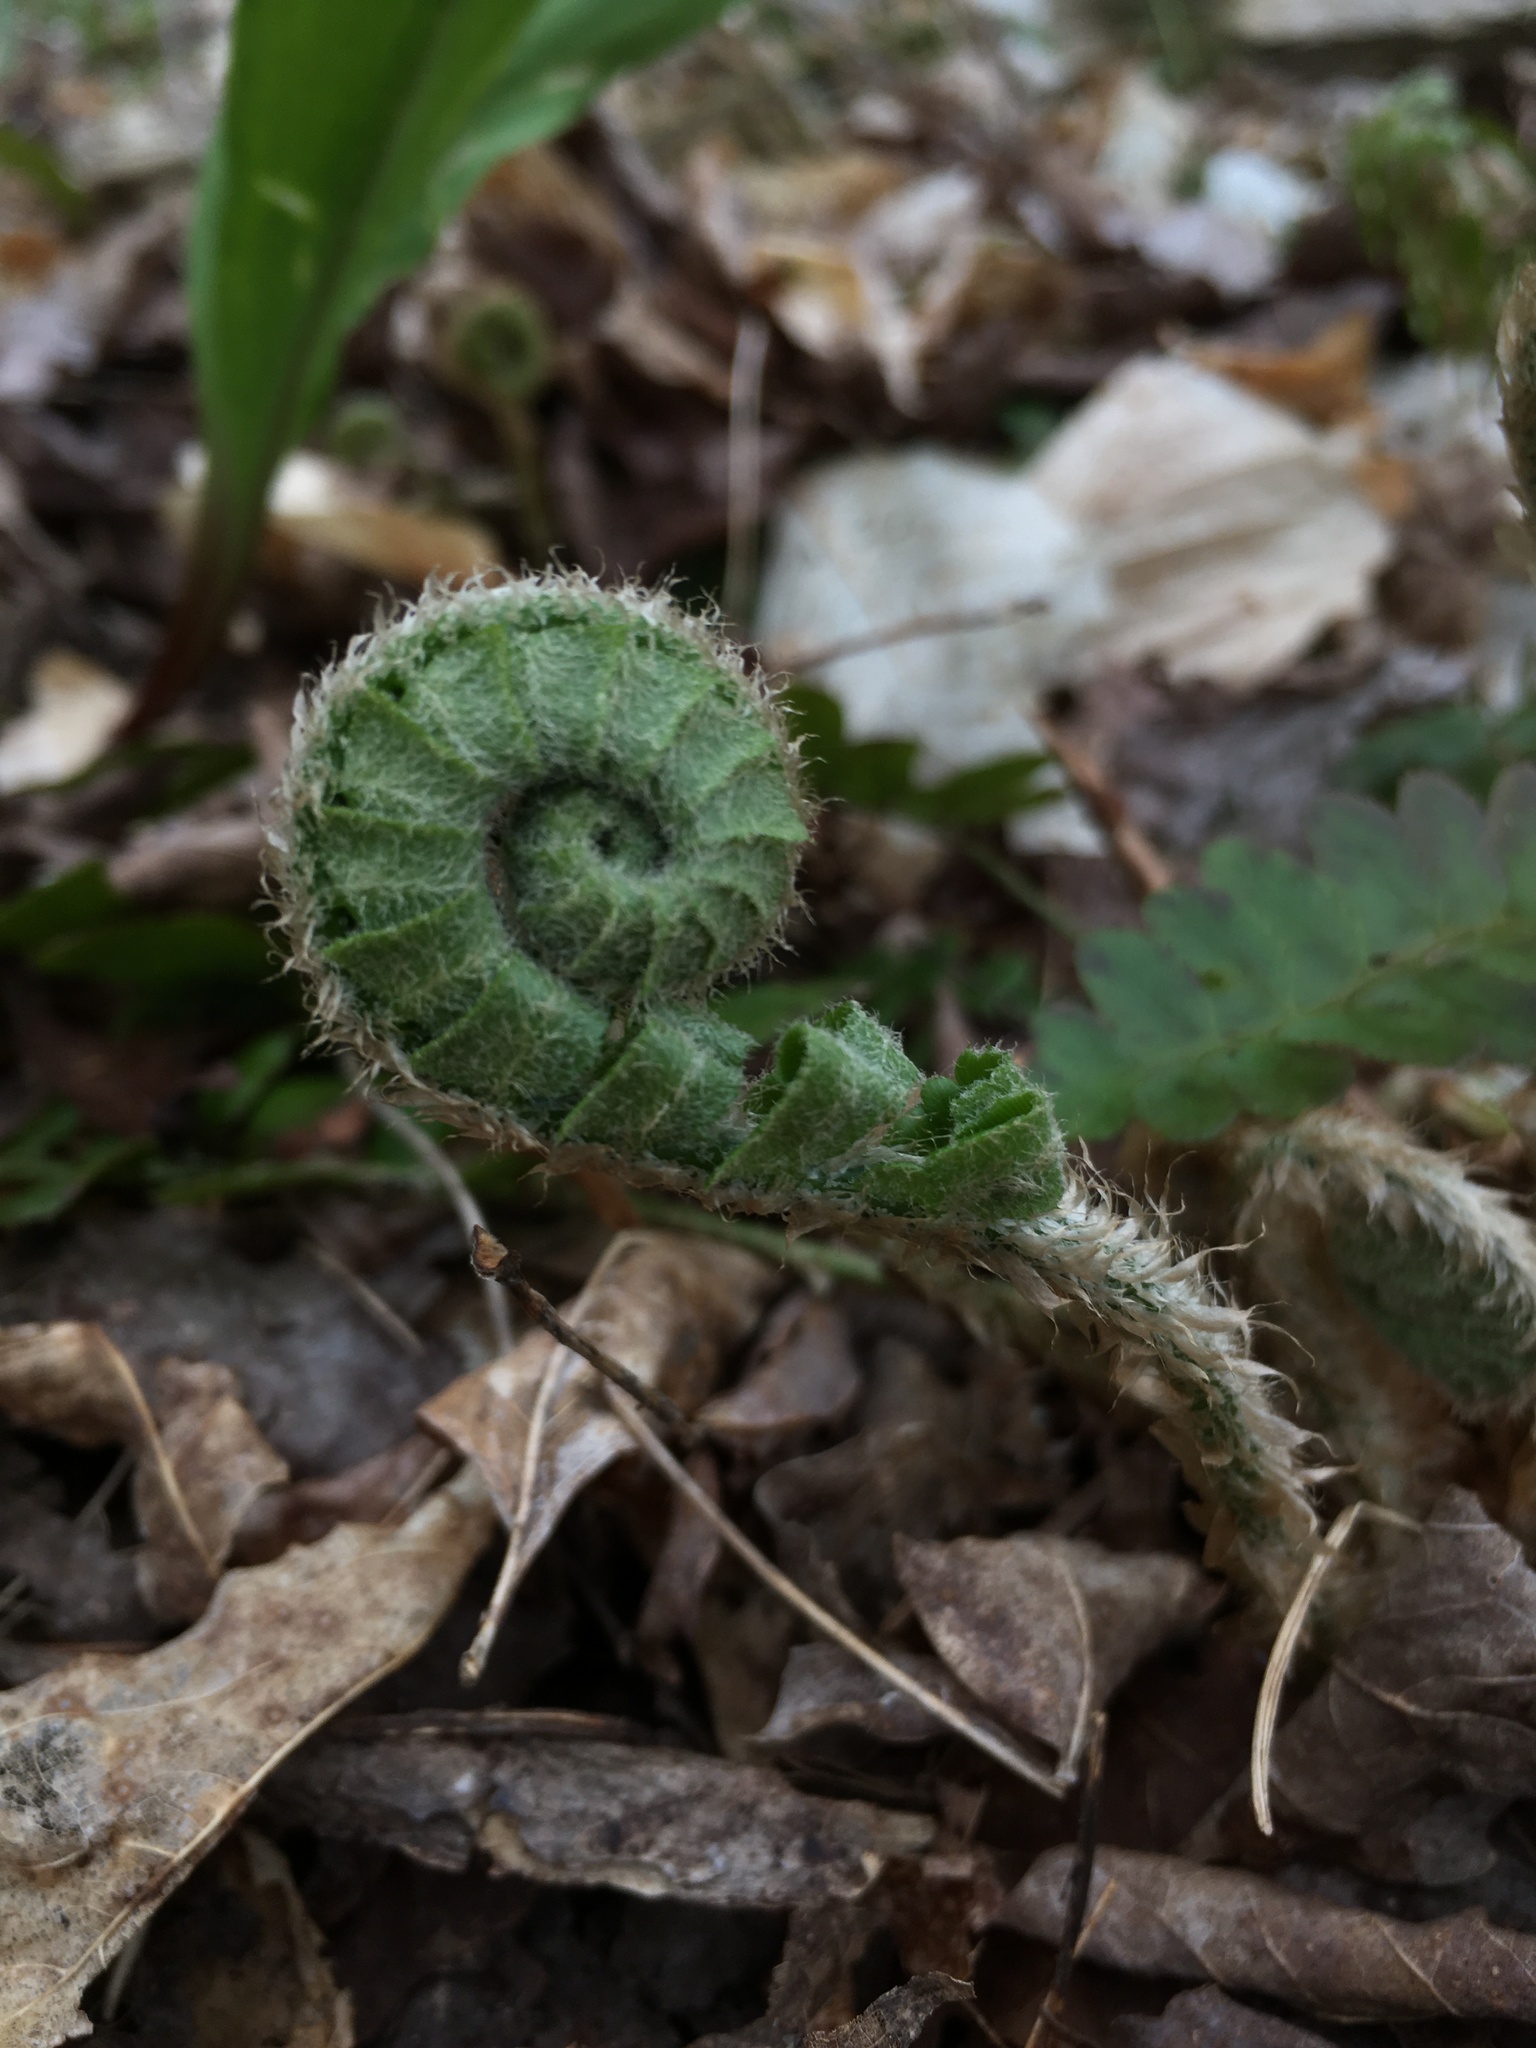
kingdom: Plantae
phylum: Tracheophyta
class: Polypodiopsida
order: Polypodiales
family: Dryopteridaceae
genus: Polystichum
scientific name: Polystichum acrostichoides
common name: Christmas fern
